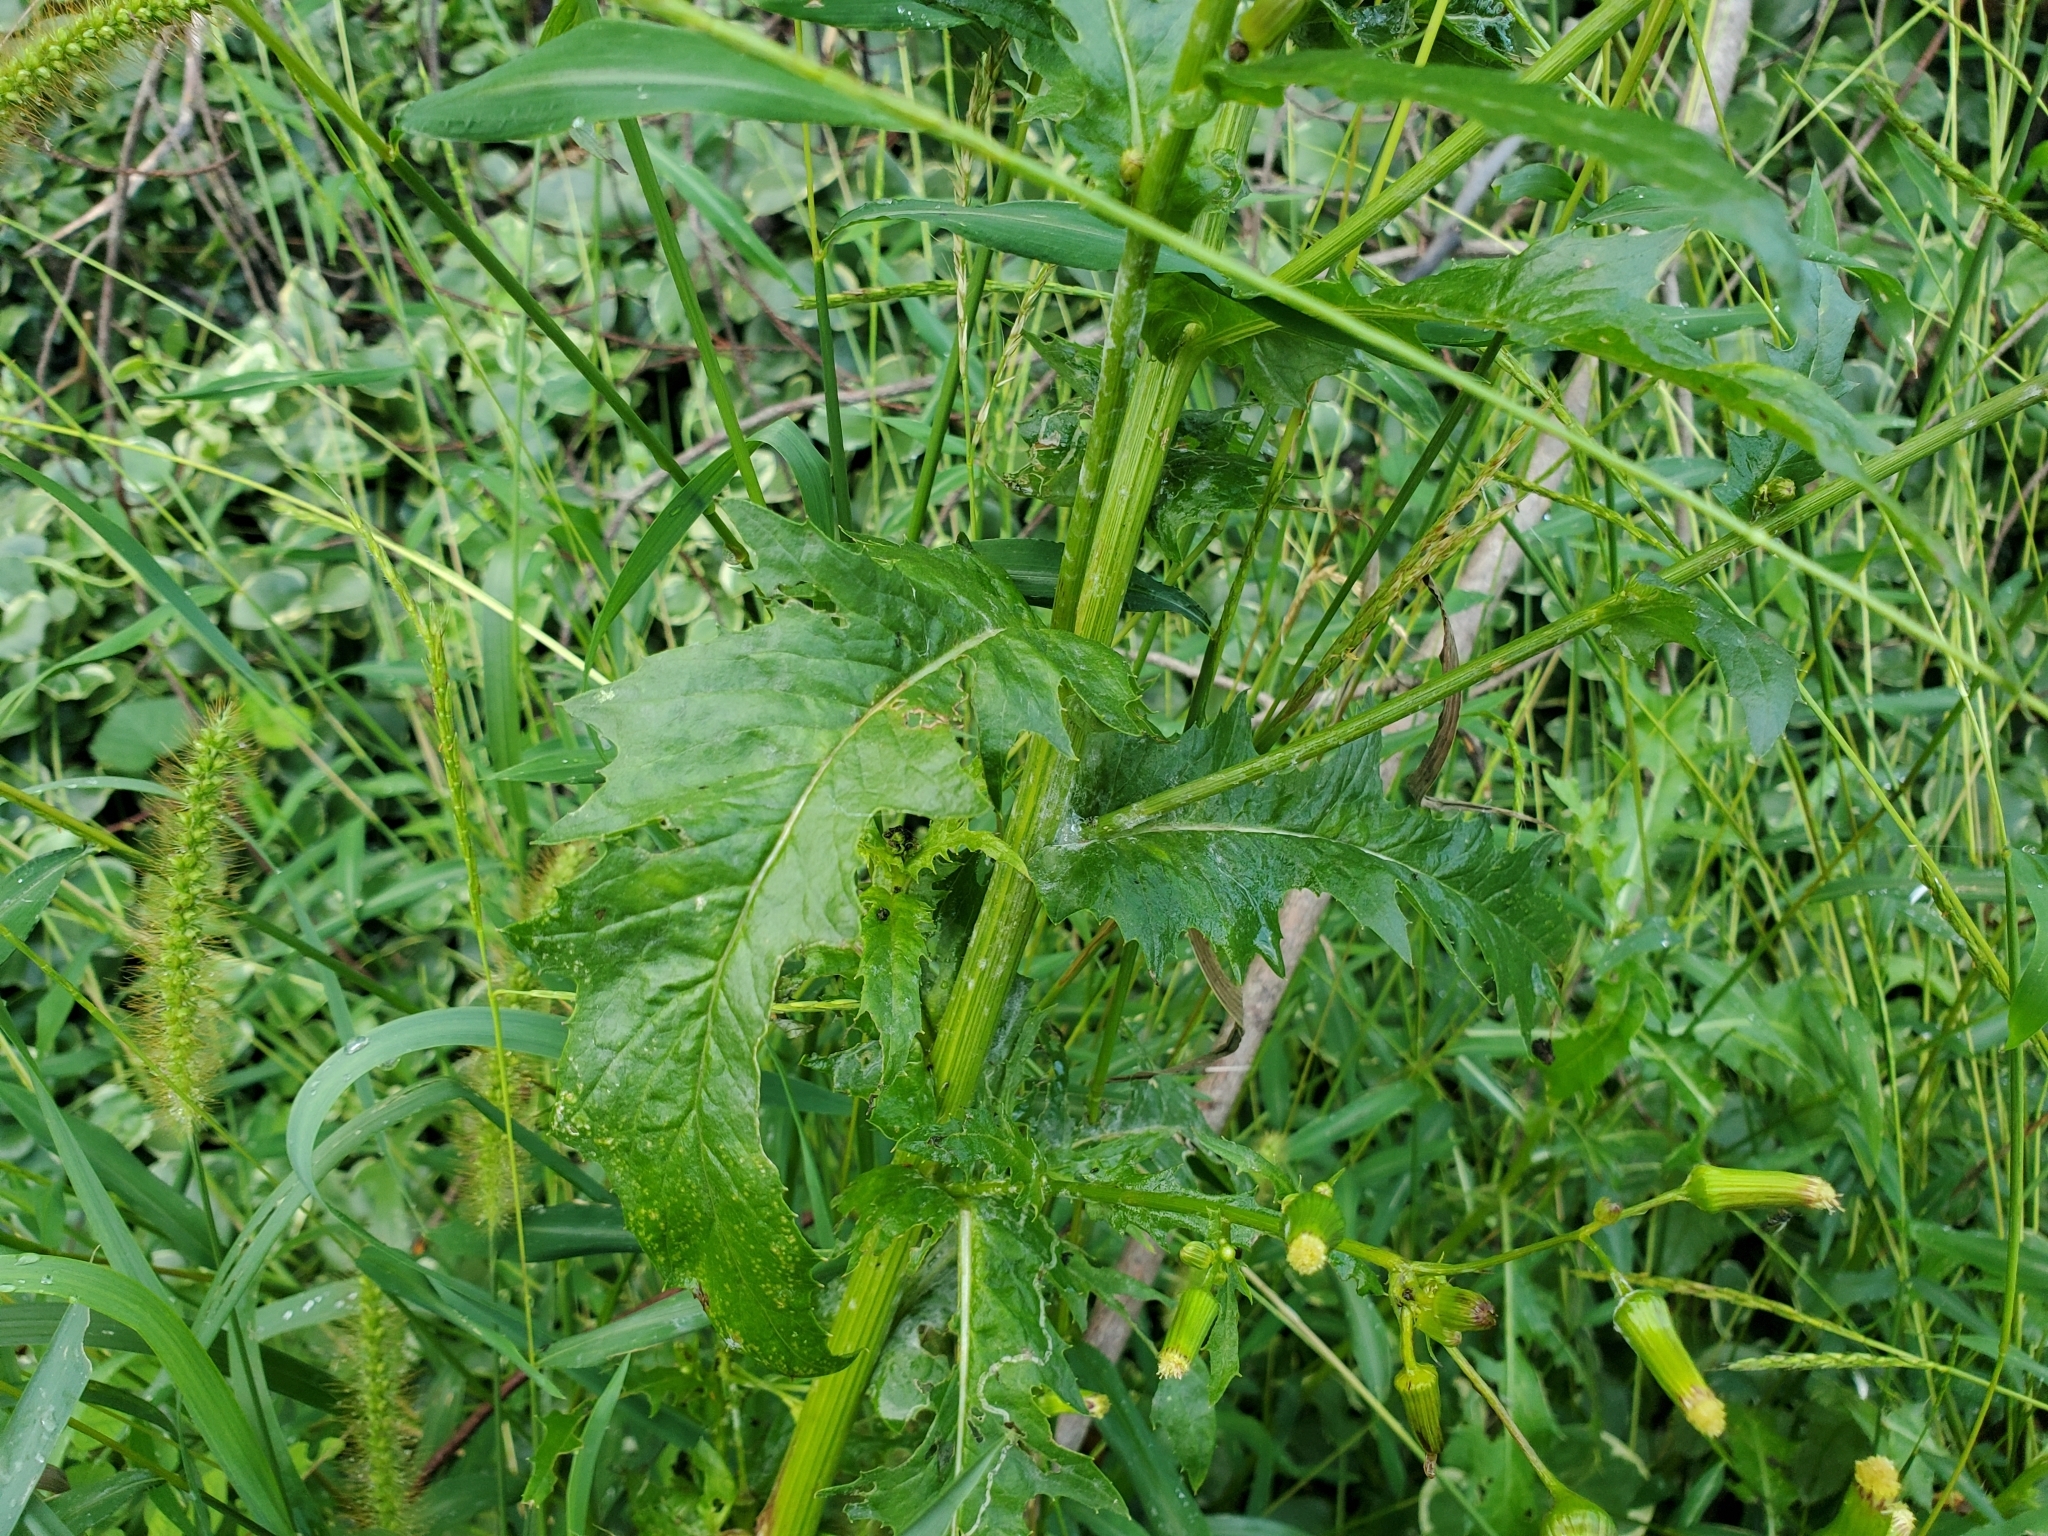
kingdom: Plantae
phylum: Tracheophyta
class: Magnoliopsida
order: Asterales
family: Asteraceae
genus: Erechtites
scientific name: Erechtites hieraciifolius
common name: American burnweed
